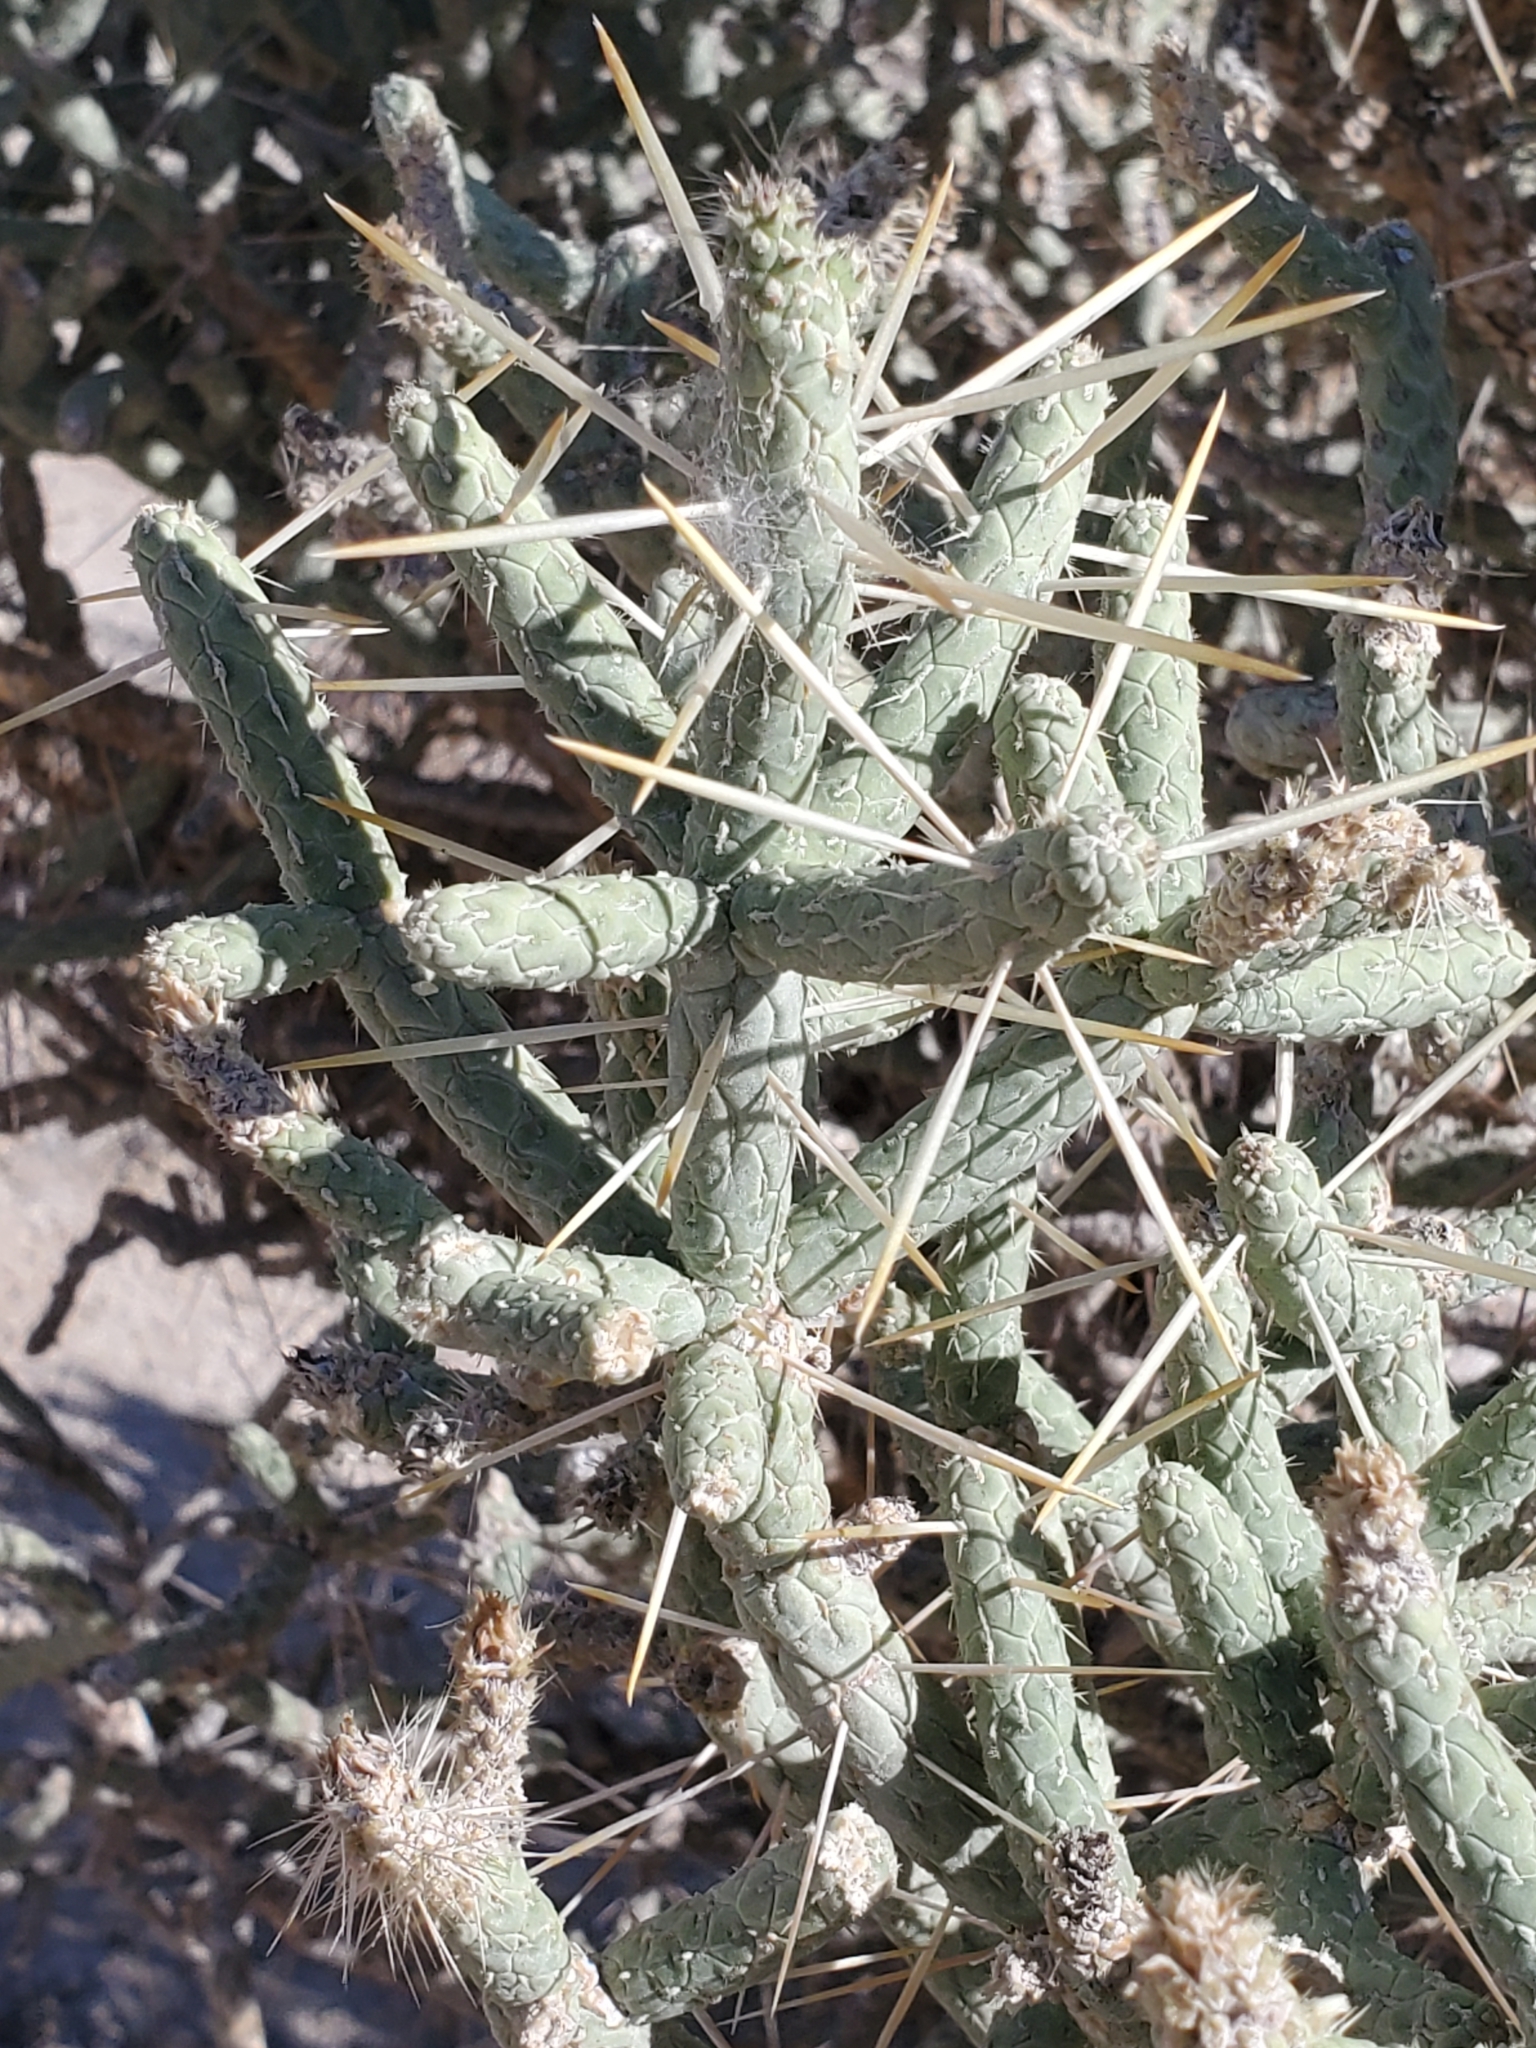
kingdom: Plantae
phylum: Tracheophyta
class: Magnoliopsida
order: Caryophyllales
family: Cactaceae
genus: Cylindropuntia
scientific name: Cylindropuntia ramosissima
